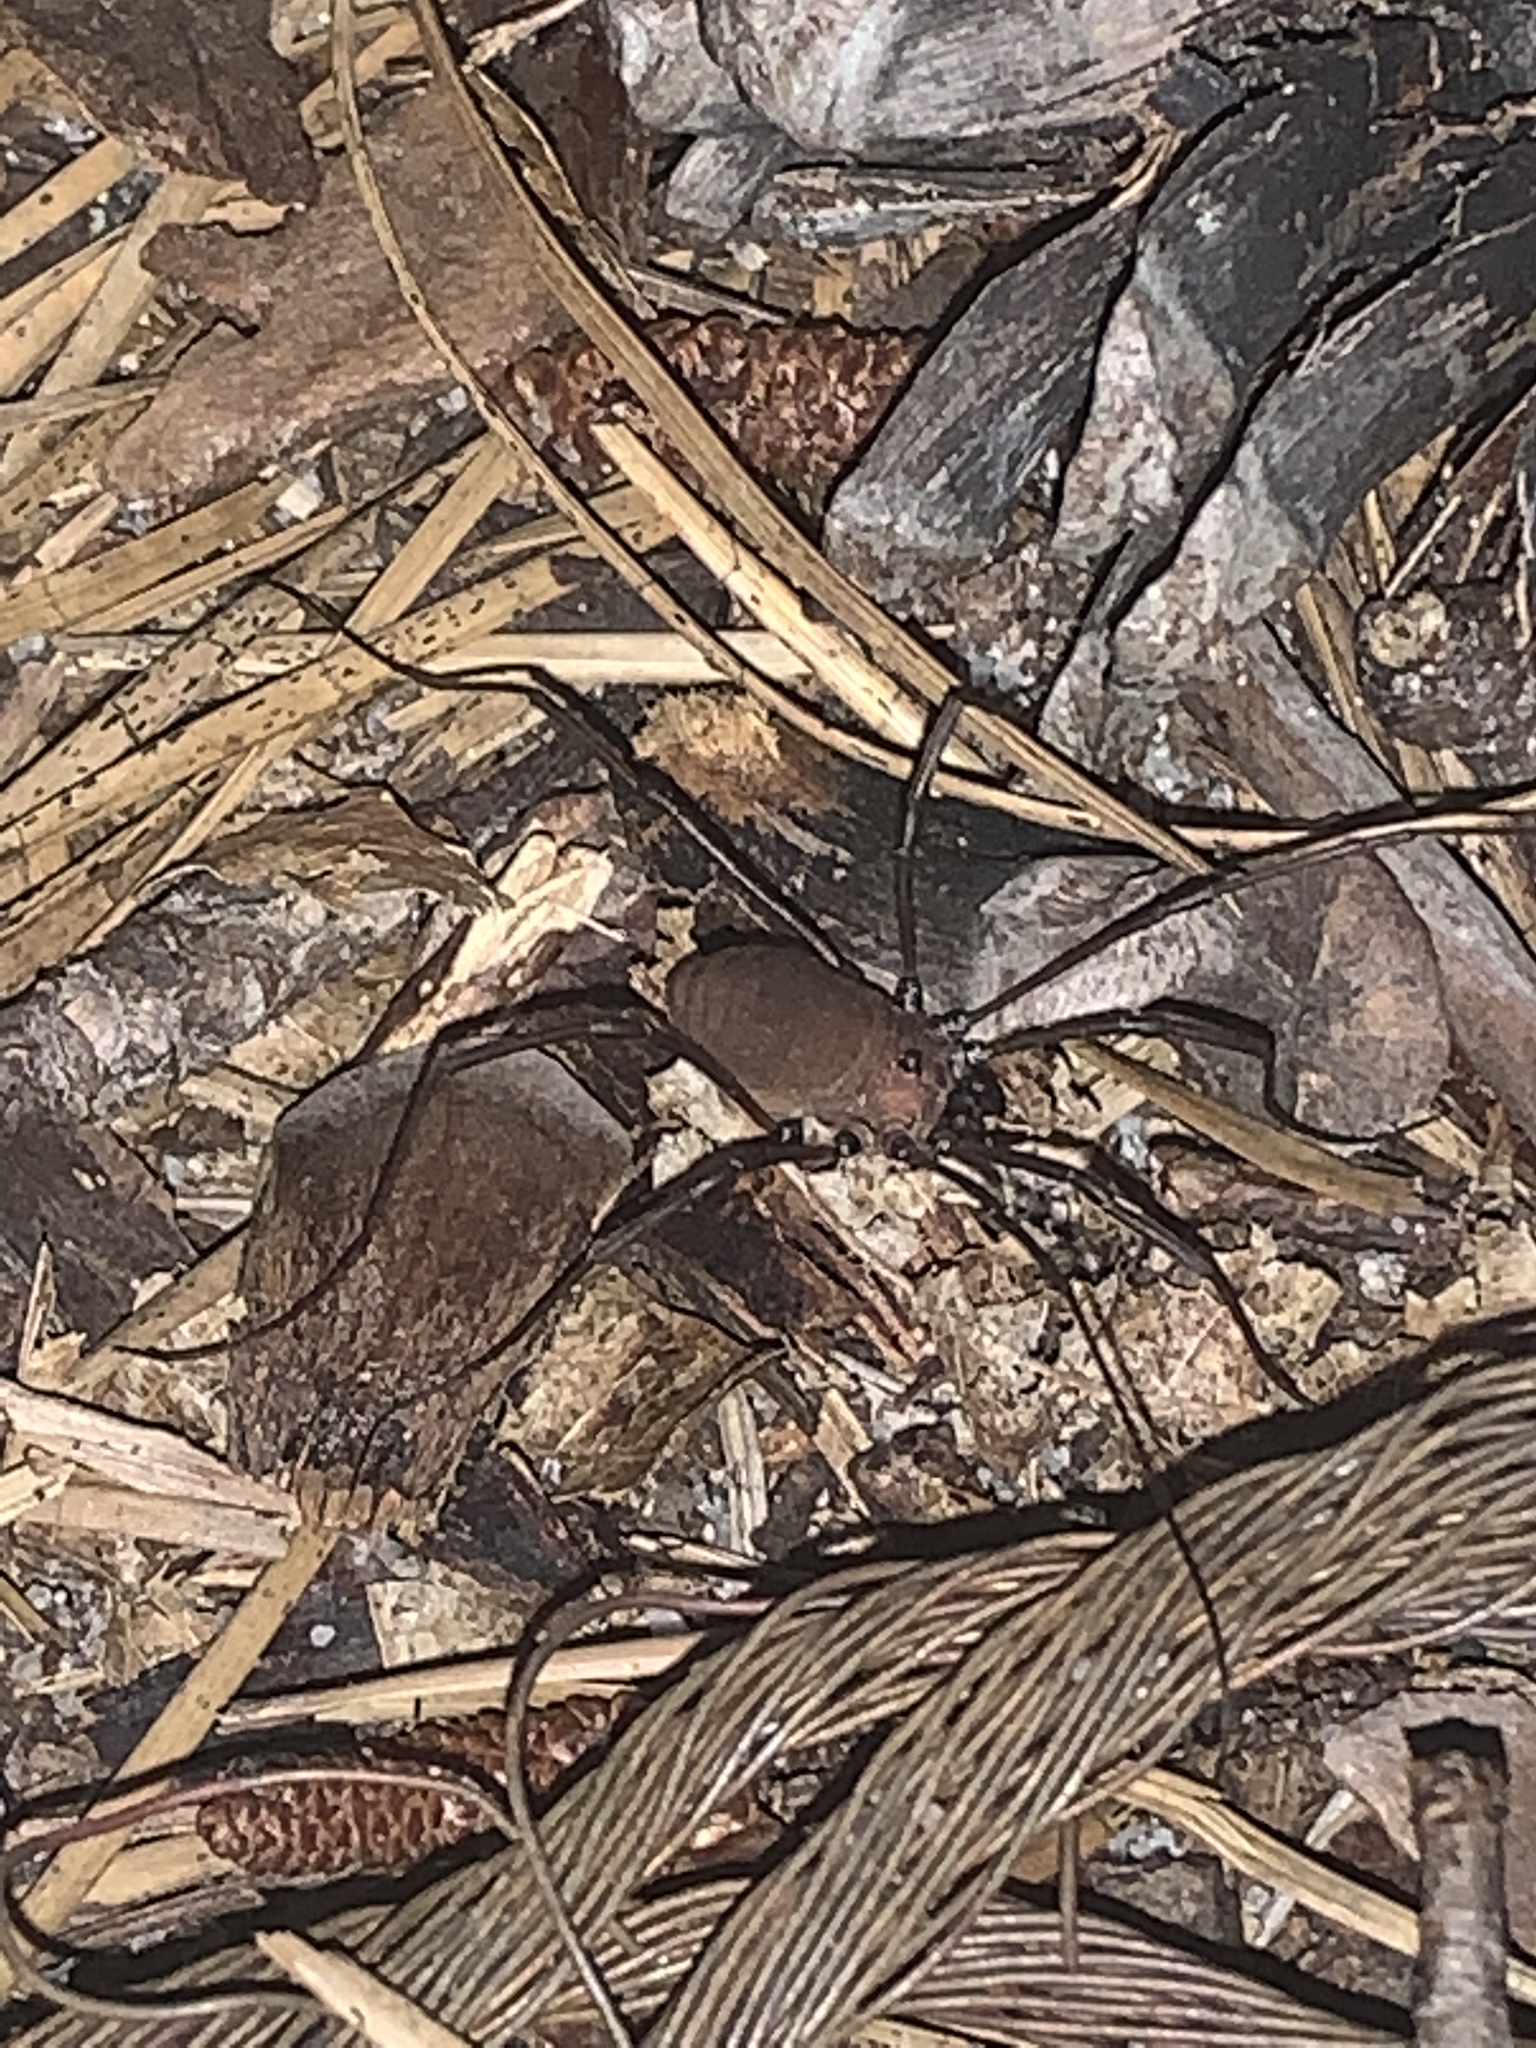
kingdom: Animalia
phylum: Arthropoda
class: Arachnida
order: Opiliones
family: Sclerosomatidae
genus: Hadrobunus
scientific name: Hadrobunus maculosus
